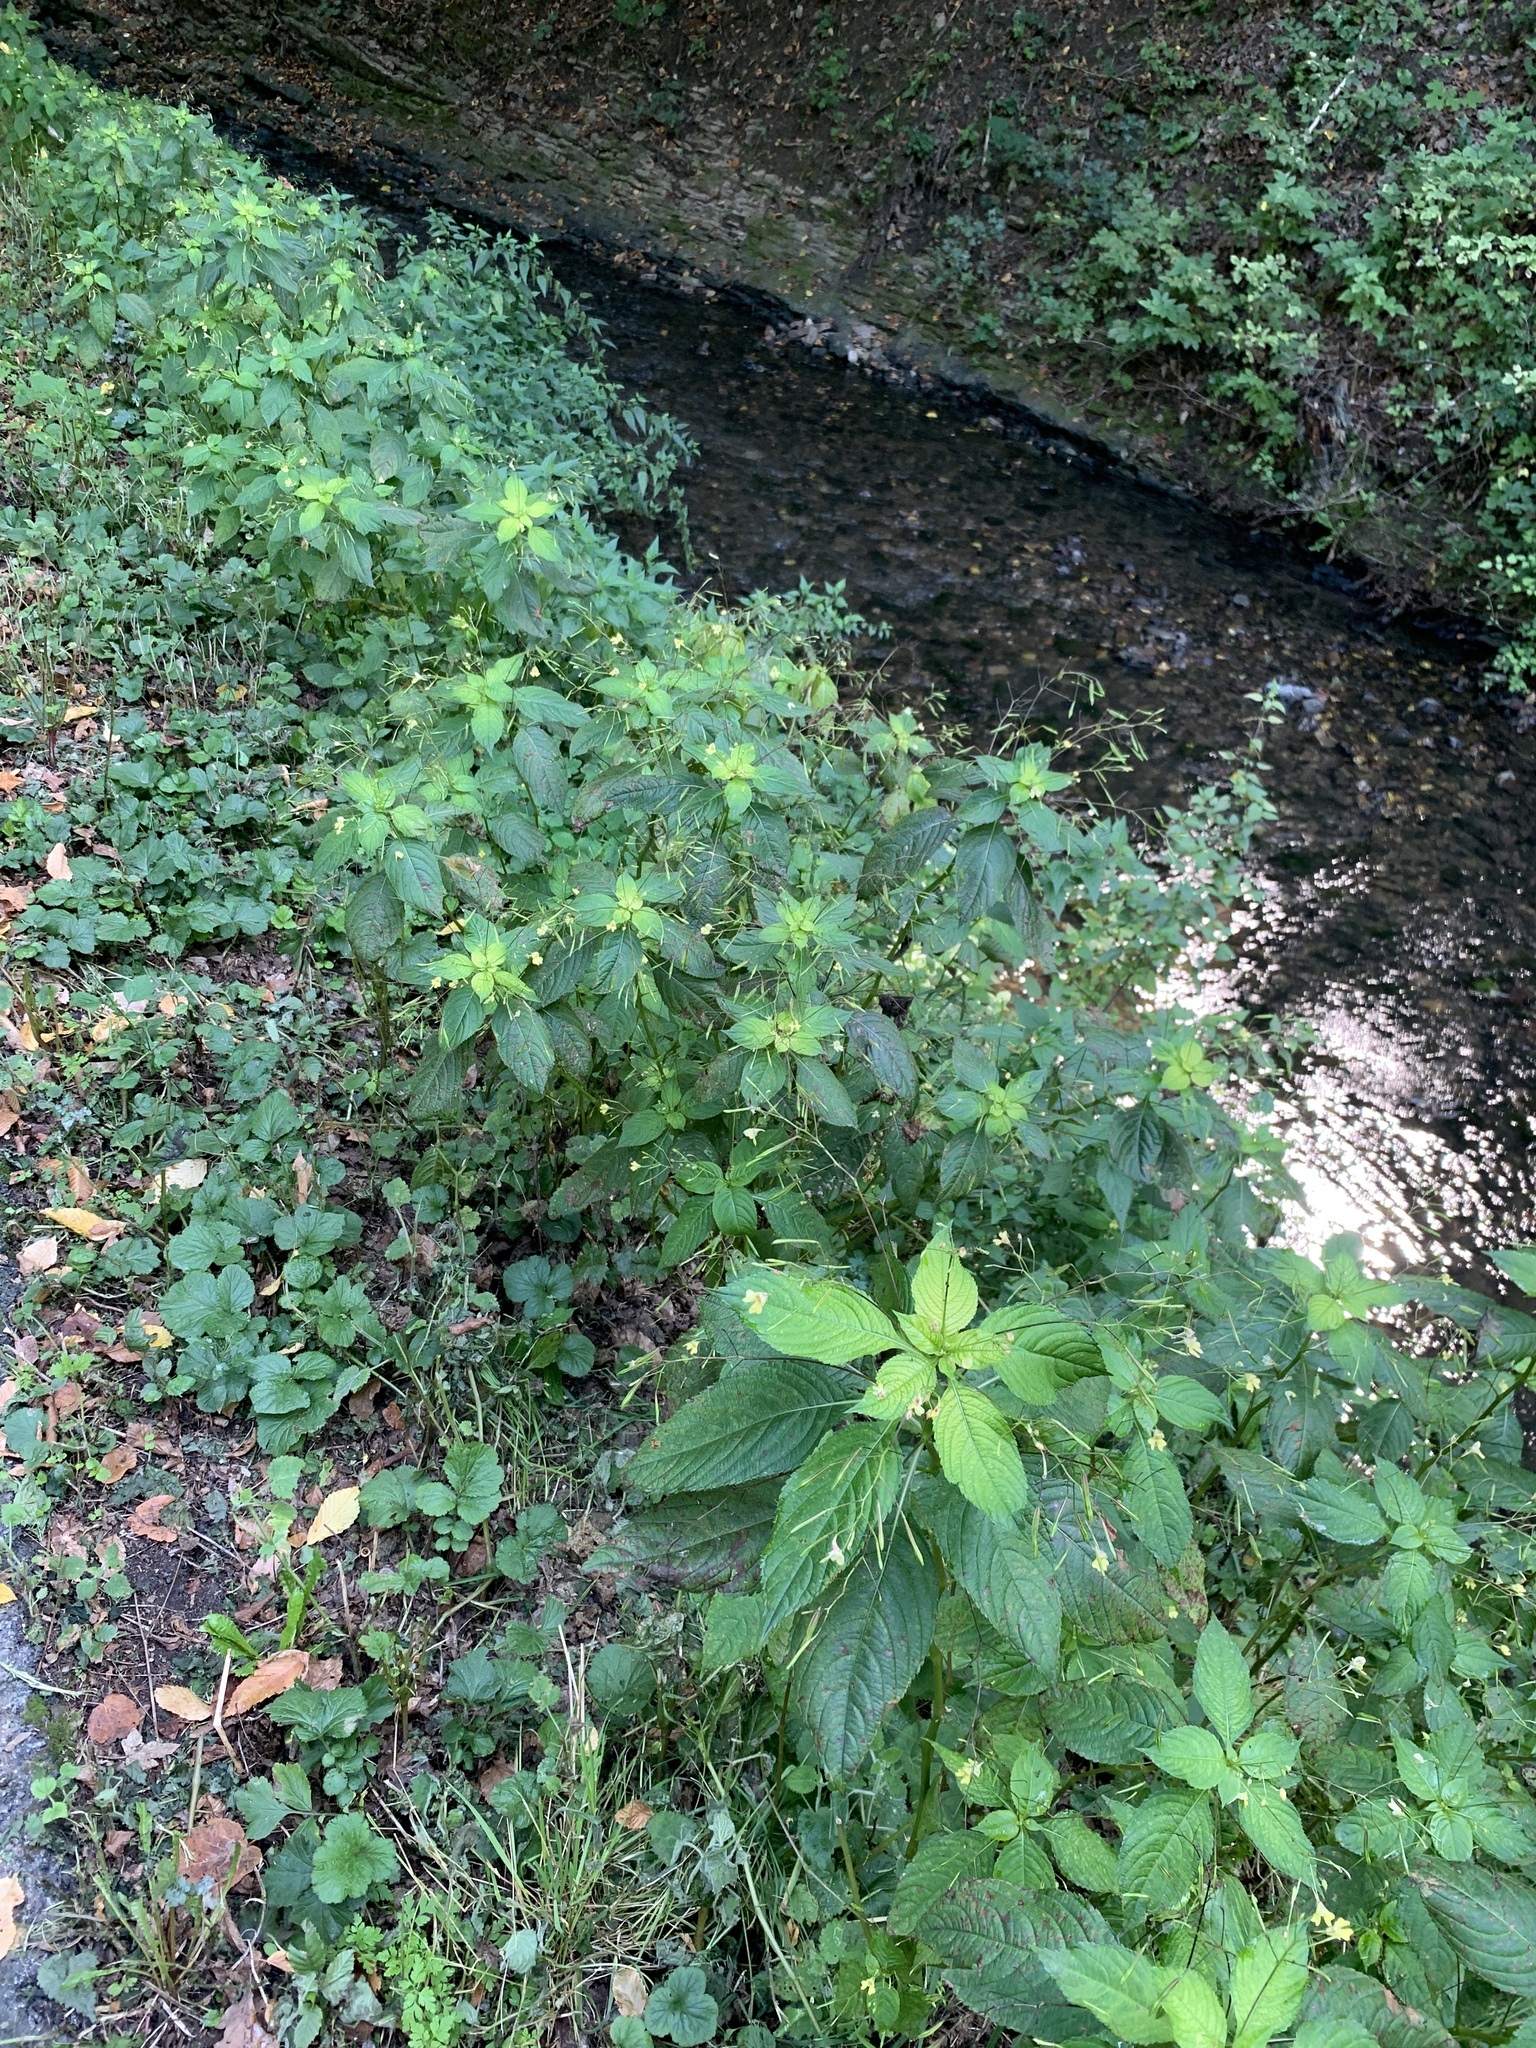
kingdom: Plantae
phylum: Tracheophyta
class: Magnoliopsida
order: Ericales
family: Balsaminaceae
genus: Impatiens
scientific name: Impatiens parviflora
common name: Small balsam
